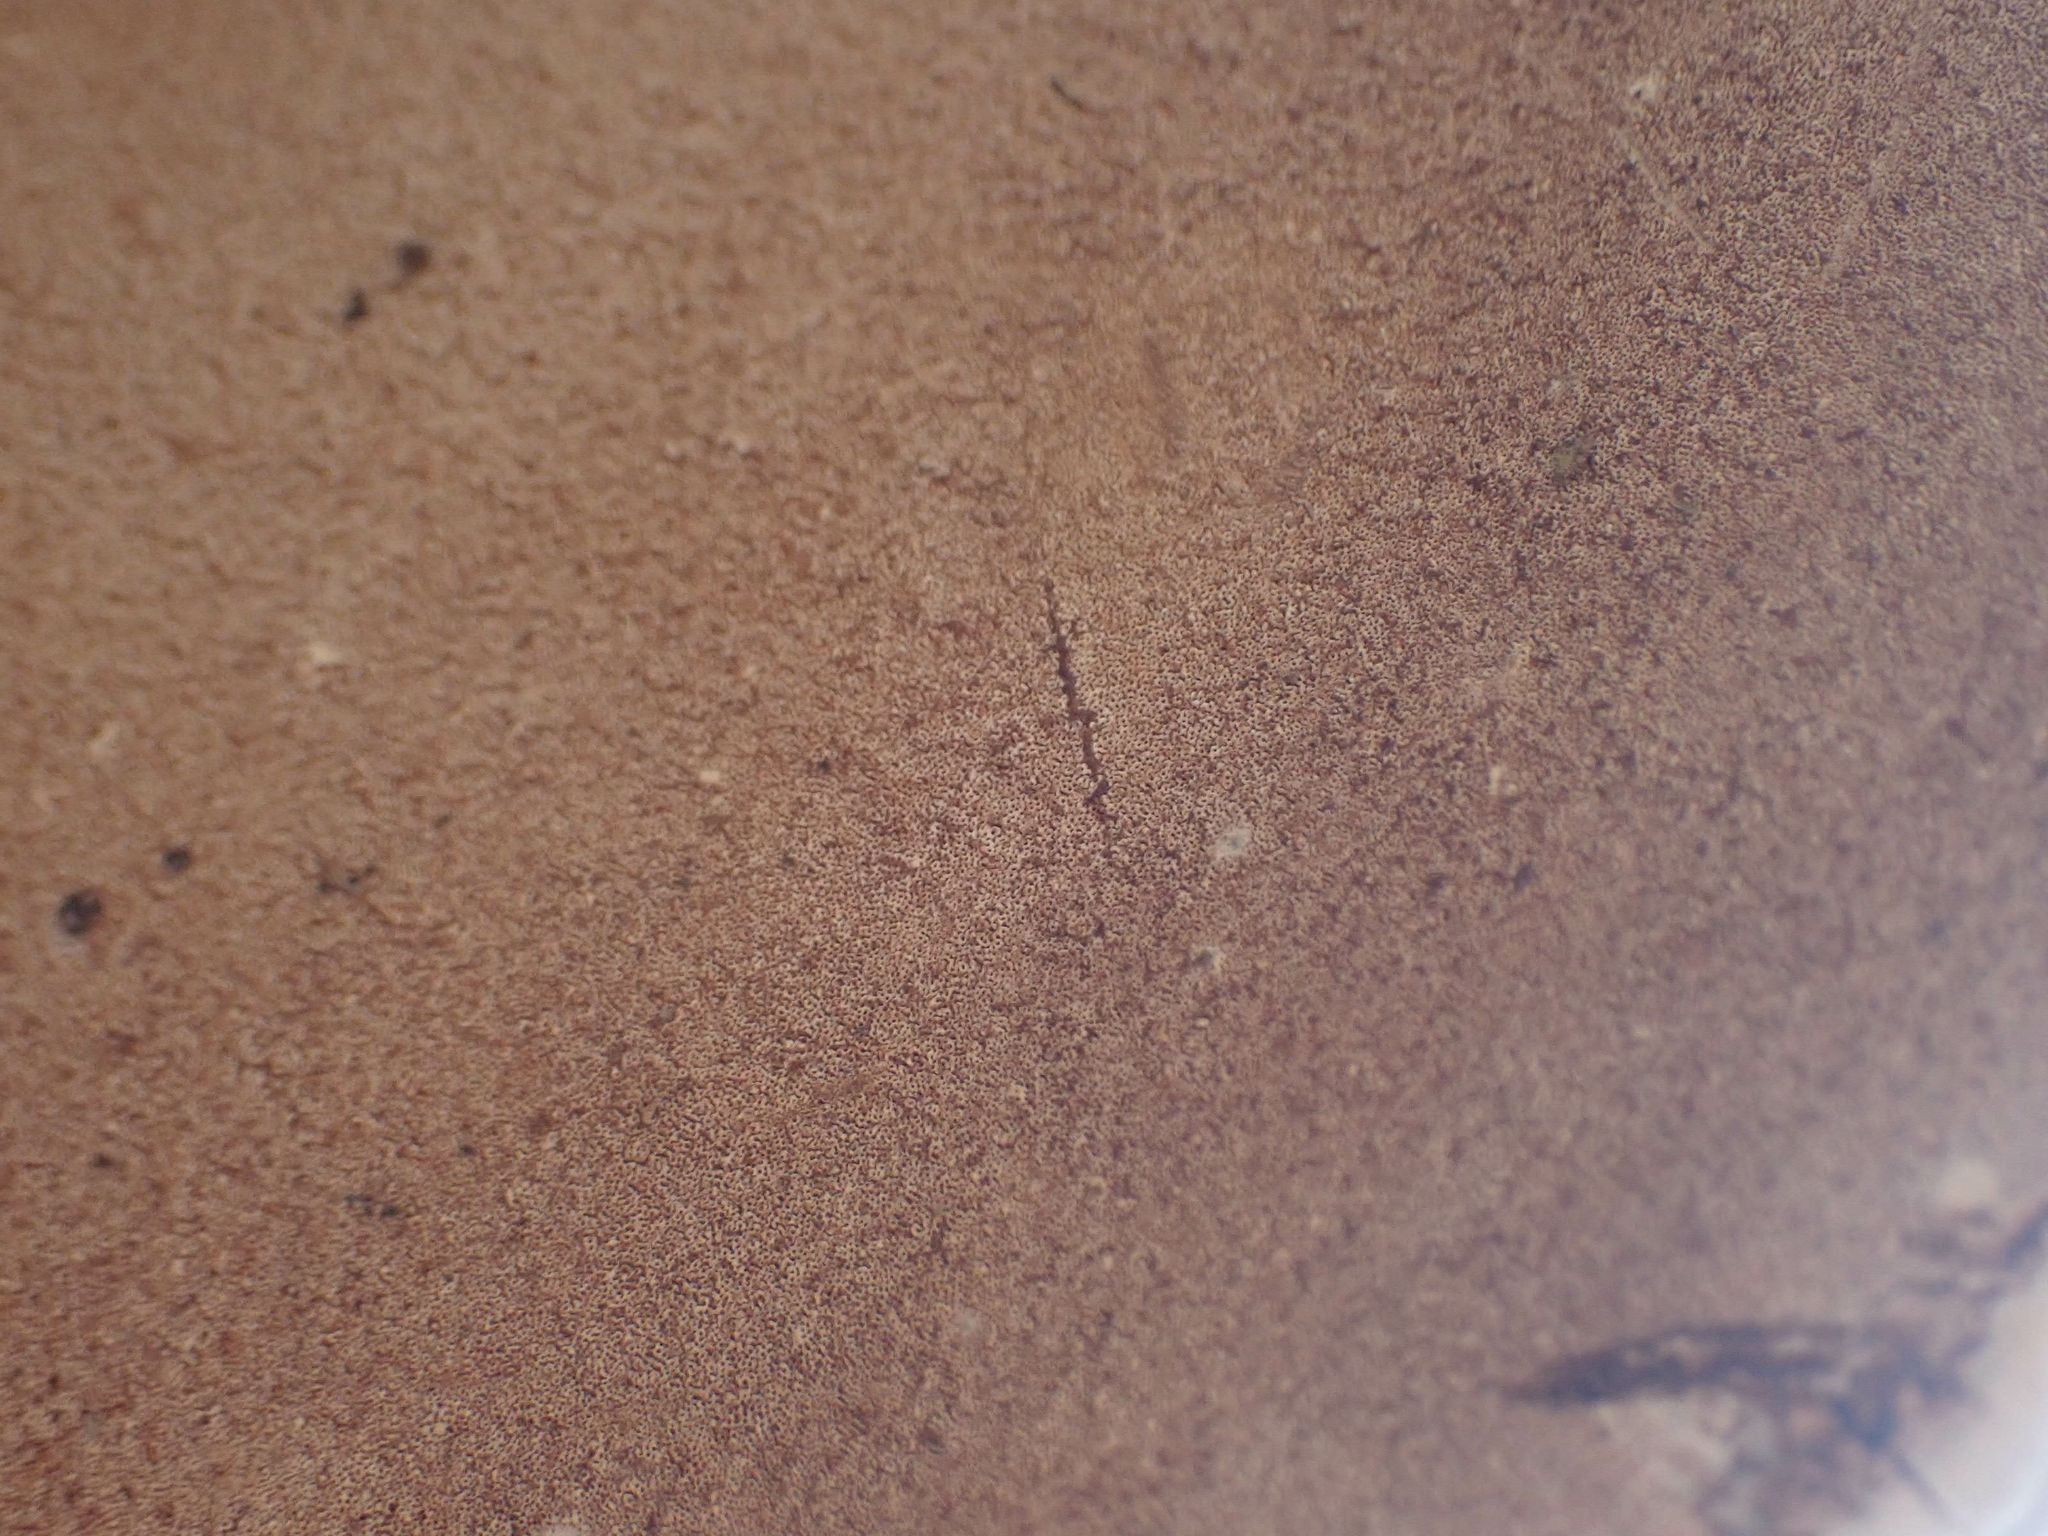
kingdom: Fungi
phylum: Basidiomycota
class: Agaricomycetes
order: Polyporales
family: Polyporaceae
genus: Ganoderma
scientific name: Ganoderma applanatum
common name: Artist's bracket
